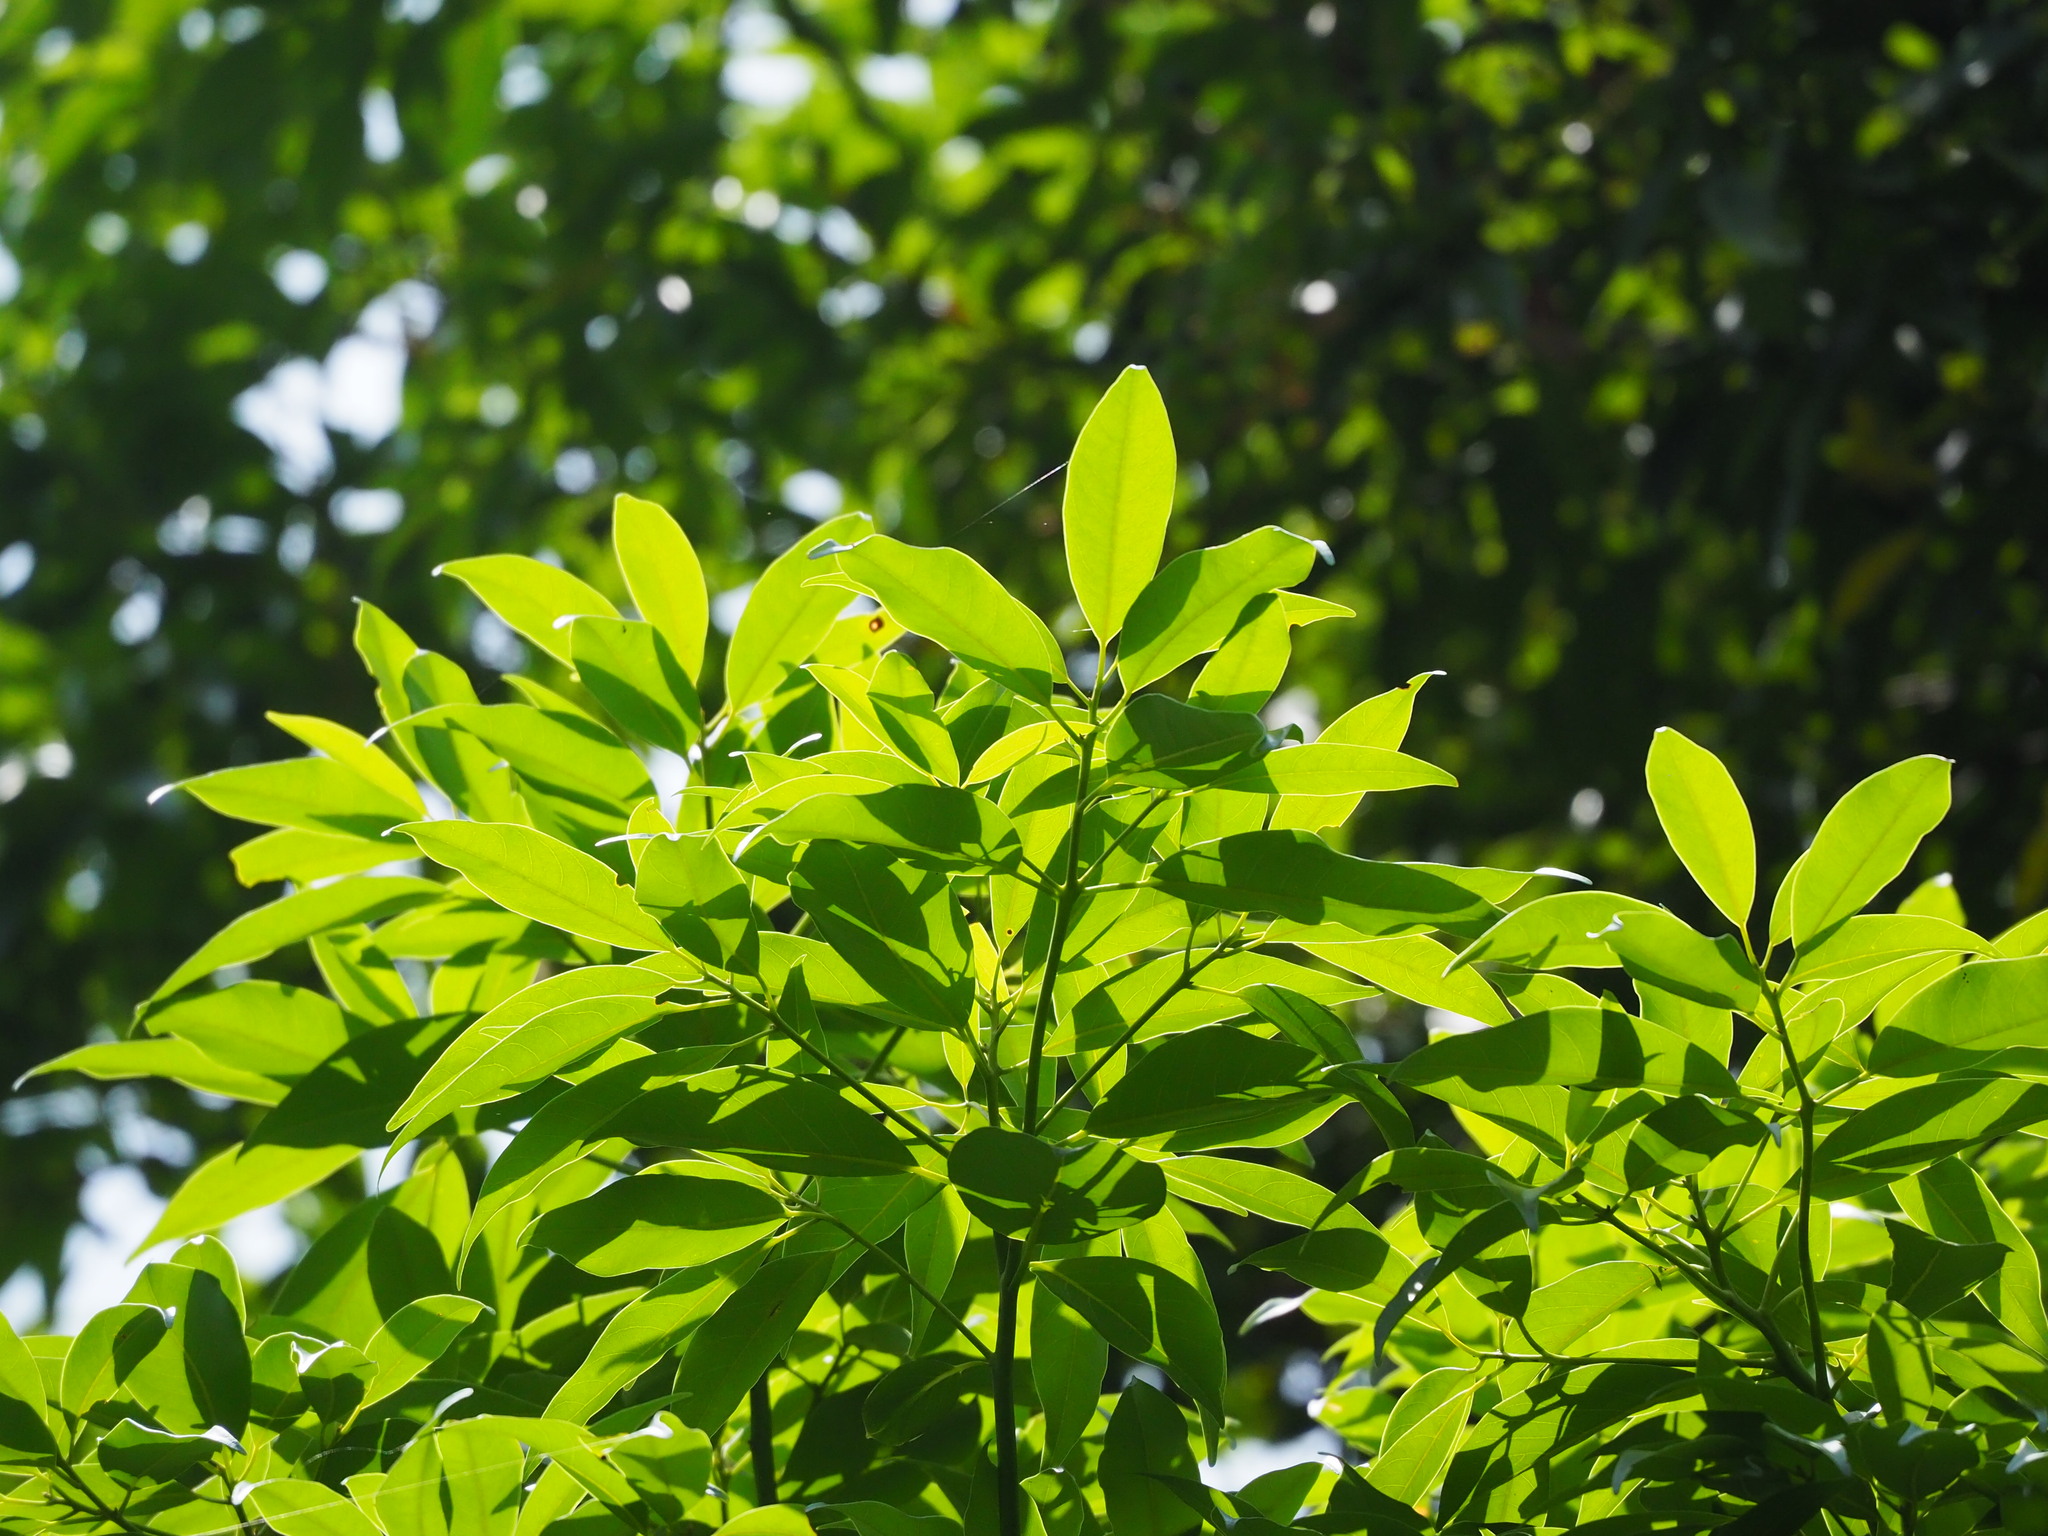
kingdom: Plantae
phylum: Tracheophyta
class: Magnoliopsida
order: Laurales
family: Lauraceae
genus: Machilus
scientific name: Machilus thunbergii
